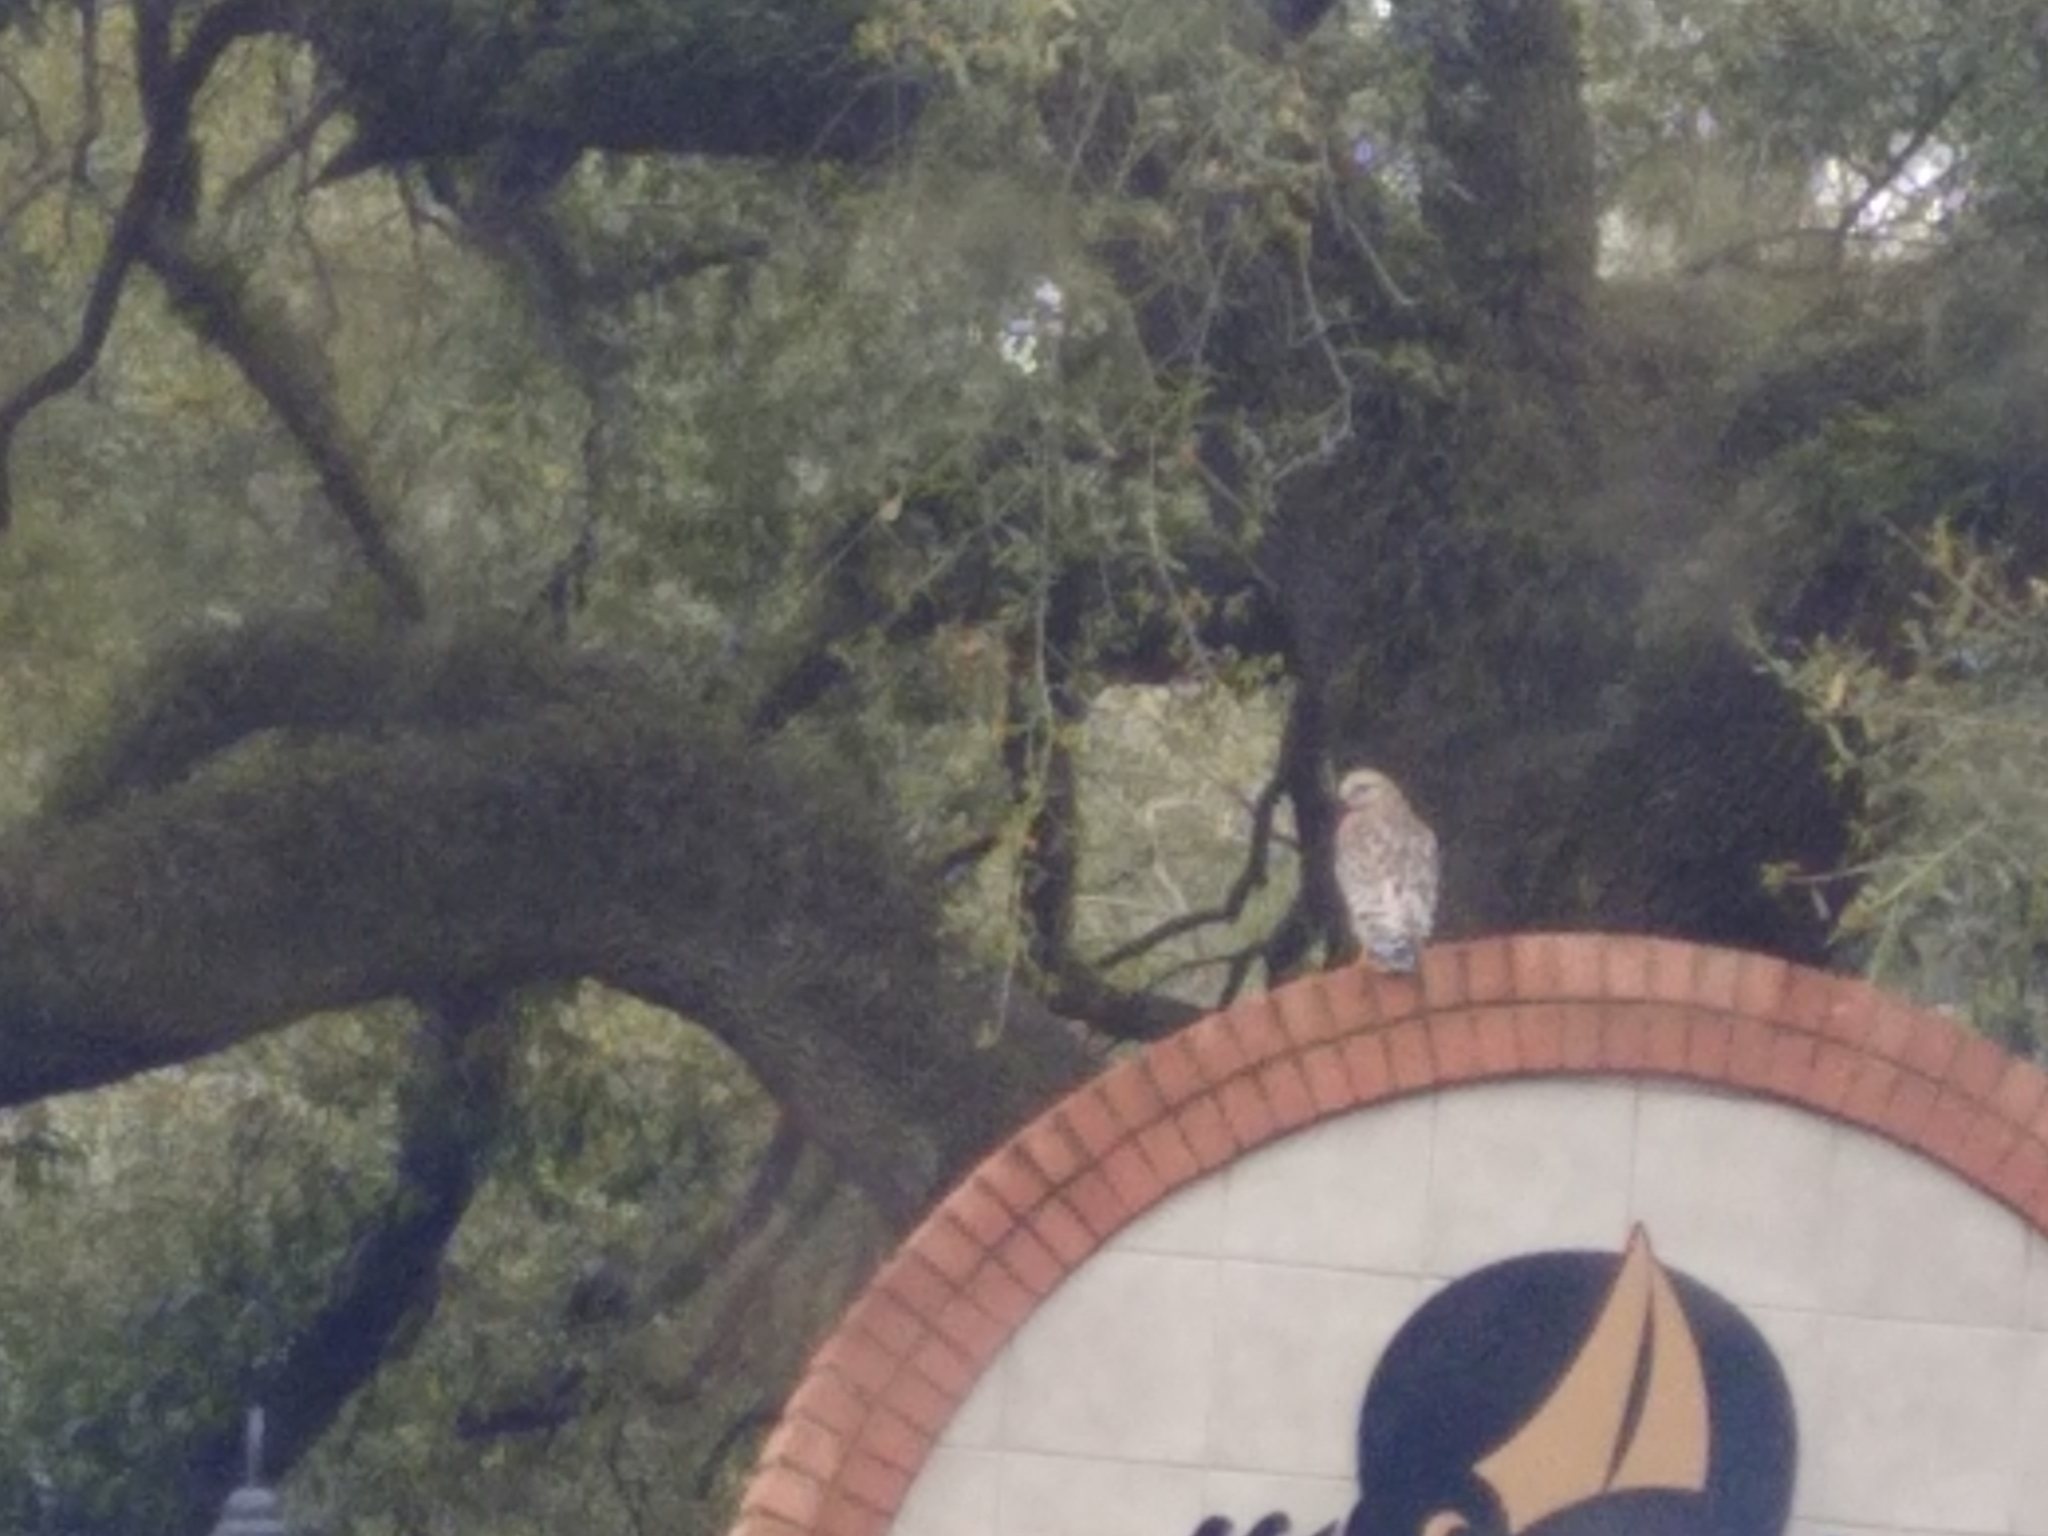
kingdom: Animalia
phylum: Chordata
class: Aves
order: Accipitriformes
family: Accipitridae
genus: Buteo
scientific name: Buteo lineatus
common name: Red-shouldered hawk
